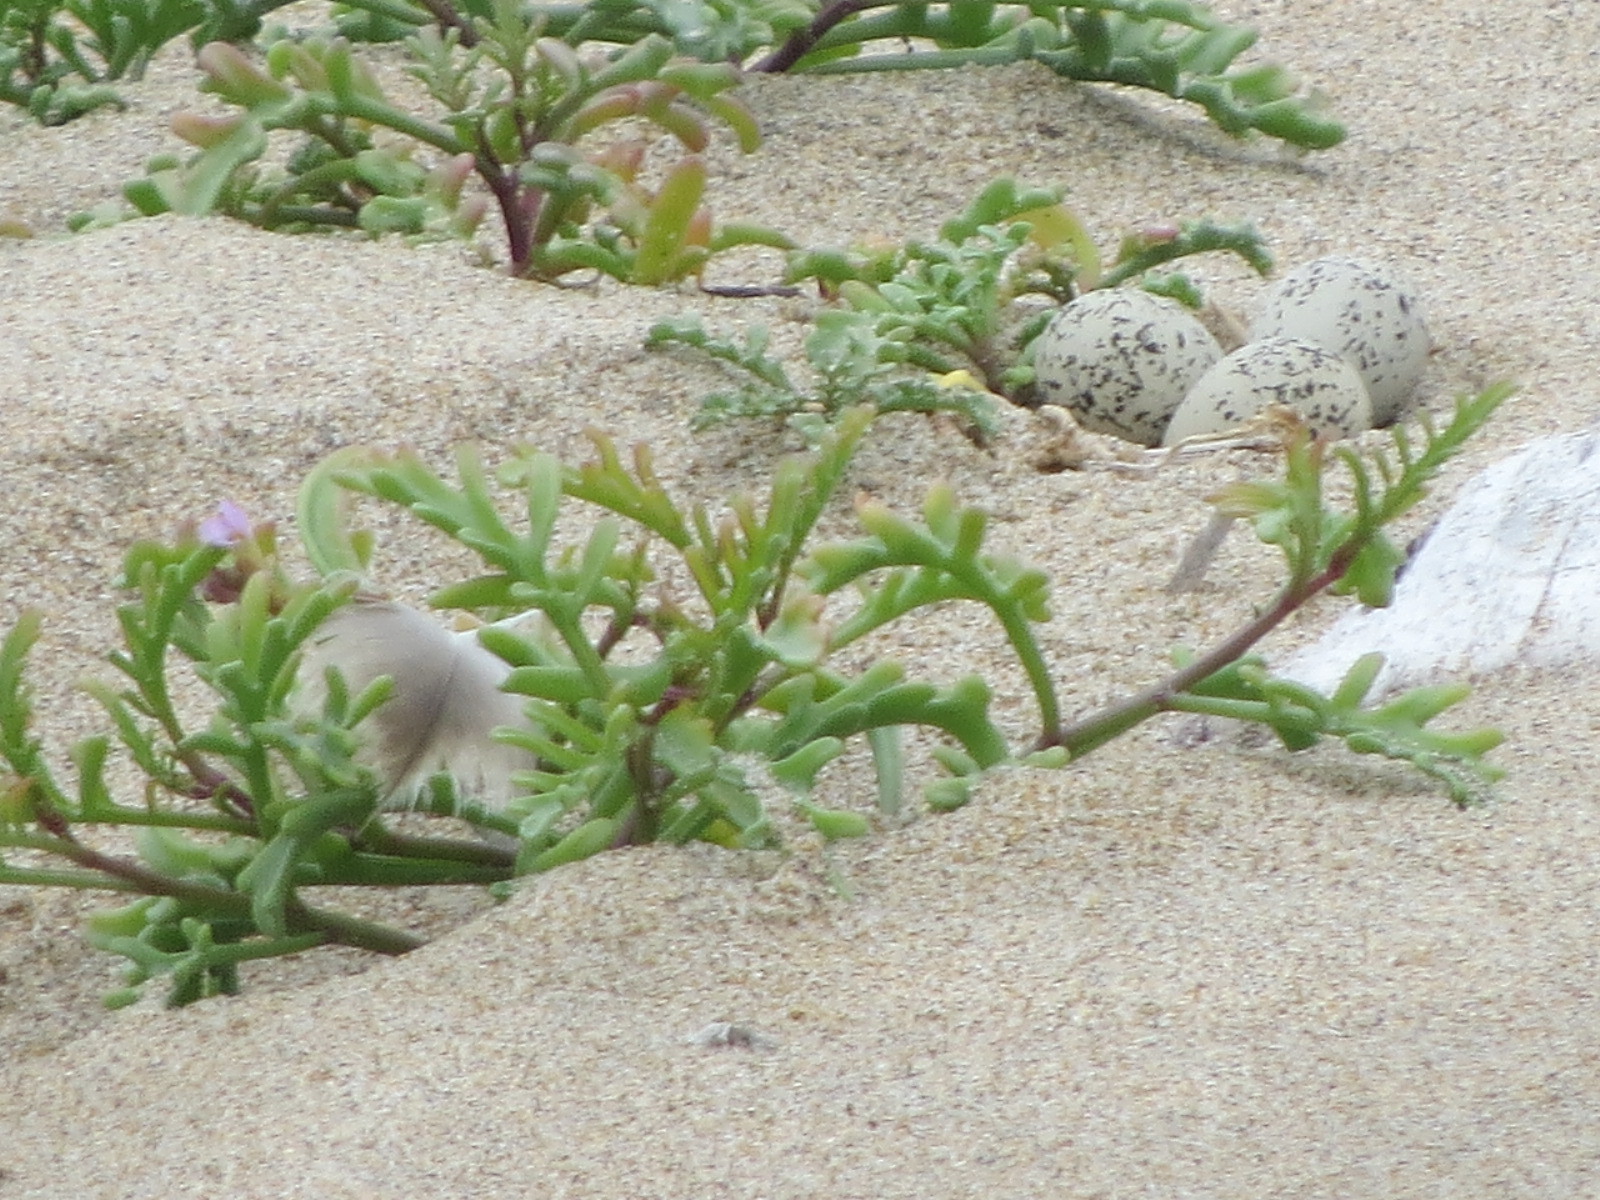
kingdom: Animalia
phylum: Chordata
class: Aves
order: Charadriiformes
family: Charadriidae
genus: Anarhynchus
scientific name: Anarhynchus
